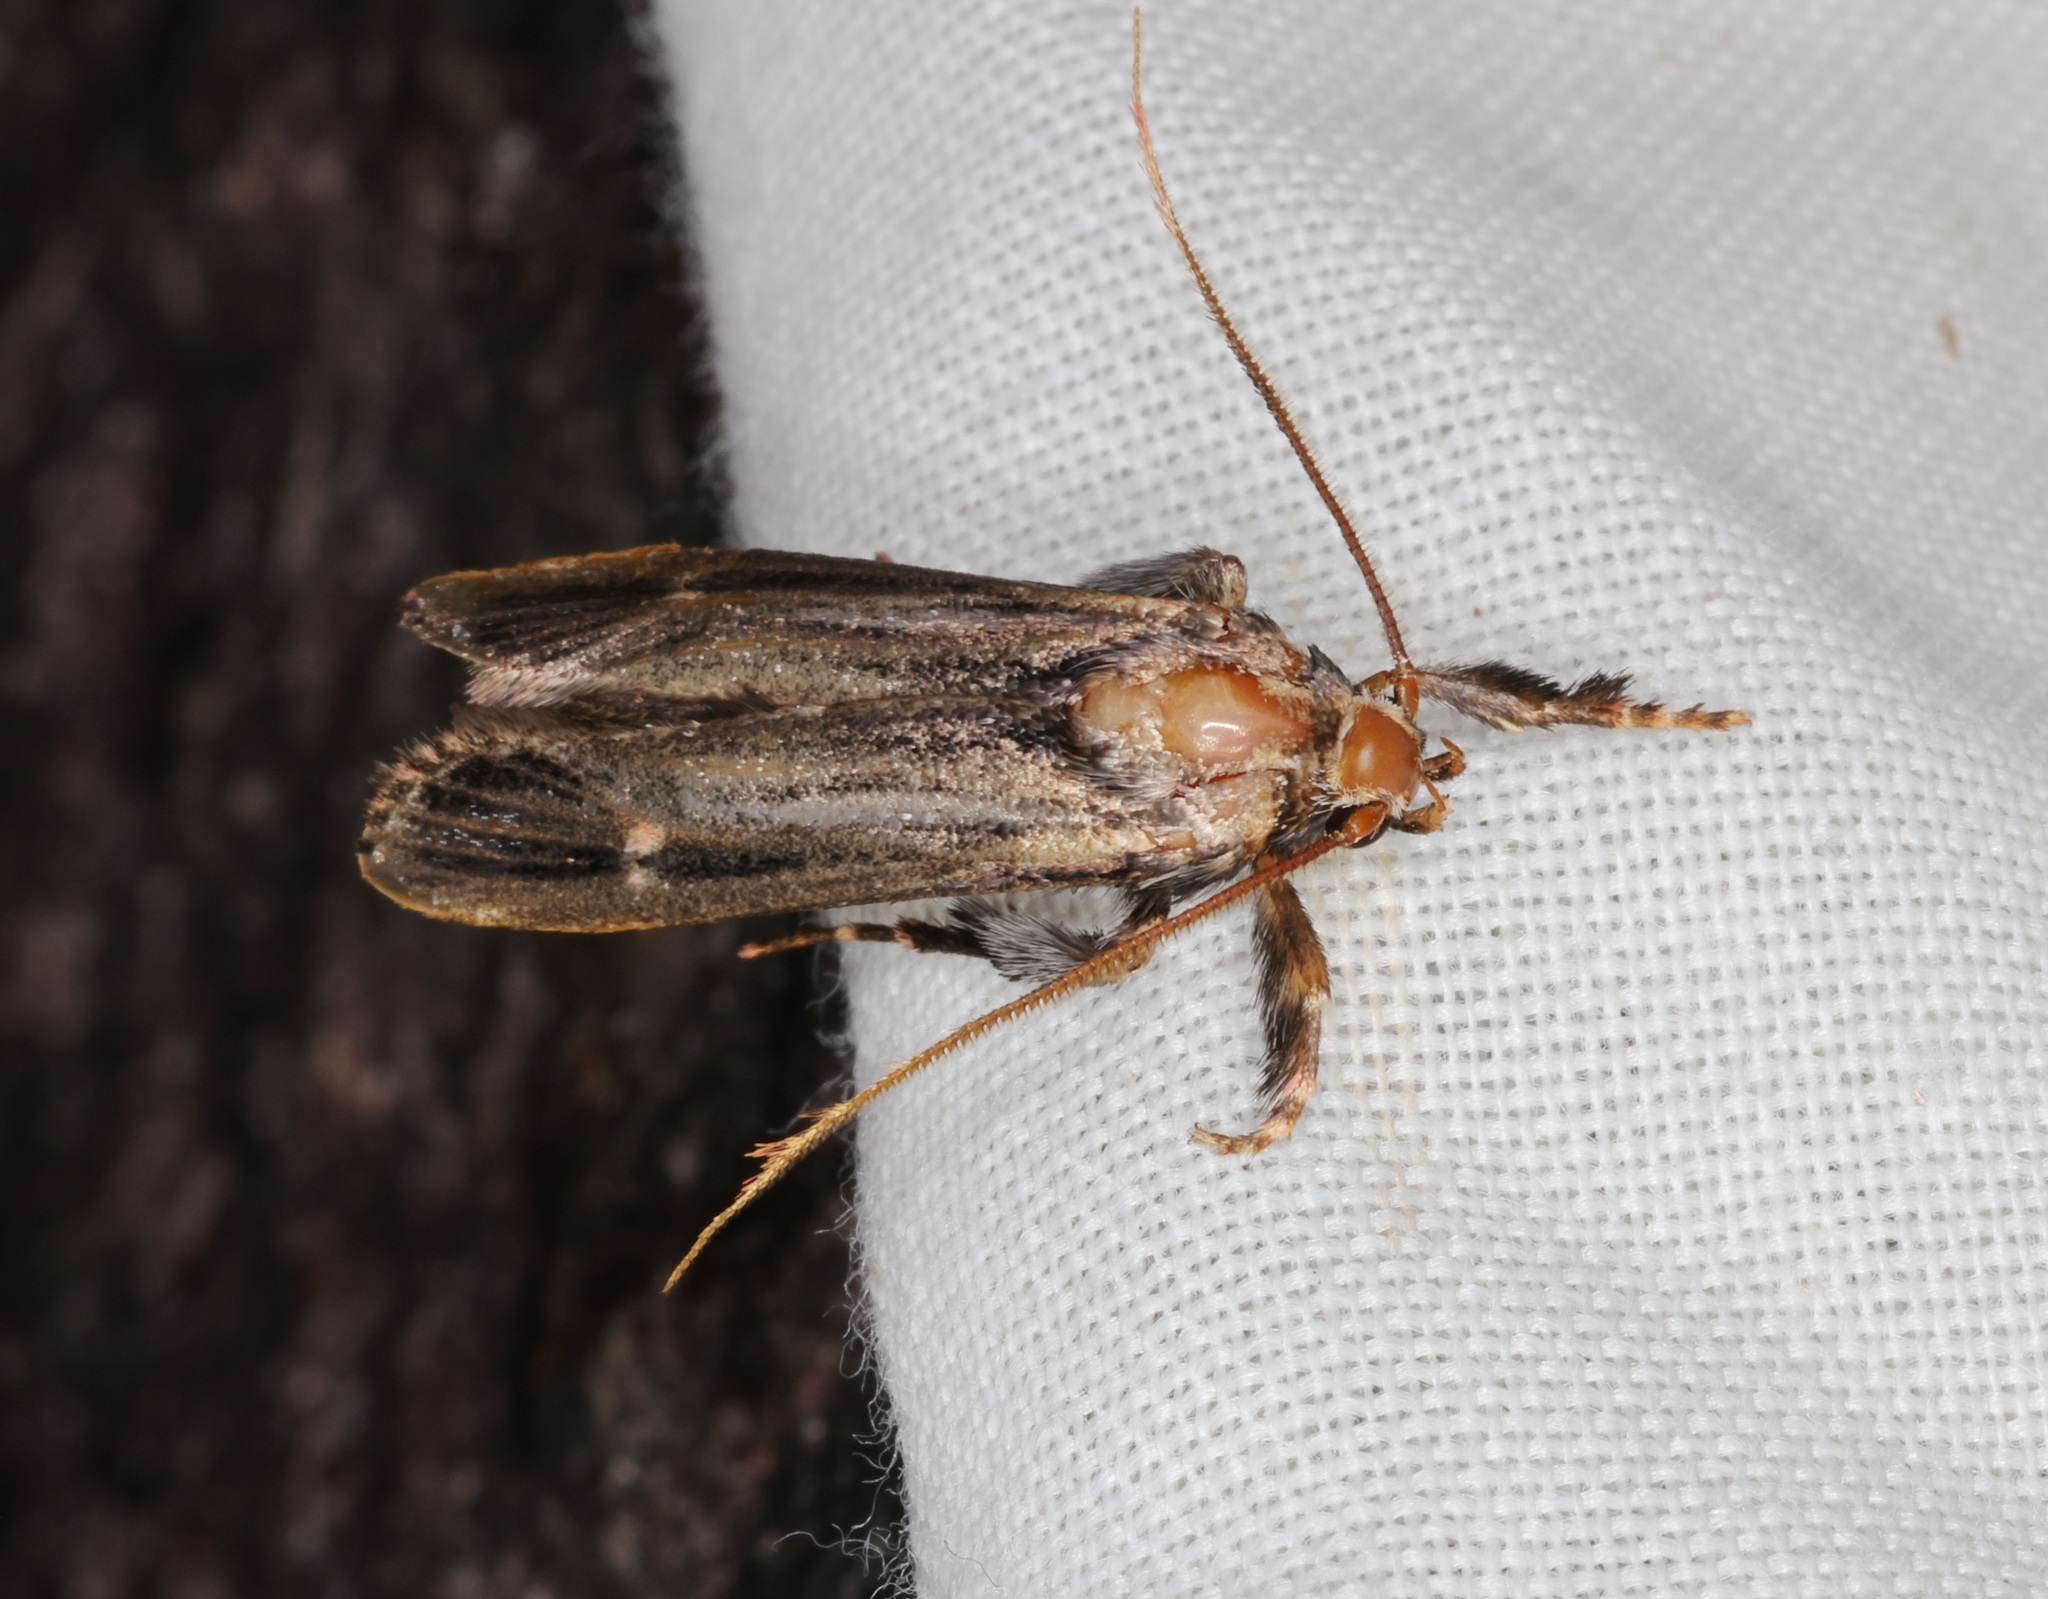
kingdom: Animalia
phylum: Arthropoda
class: Insecta
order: Lepidoptera
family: Ashinagidae
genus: Ashinaga
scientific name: Ashinaga longimana
